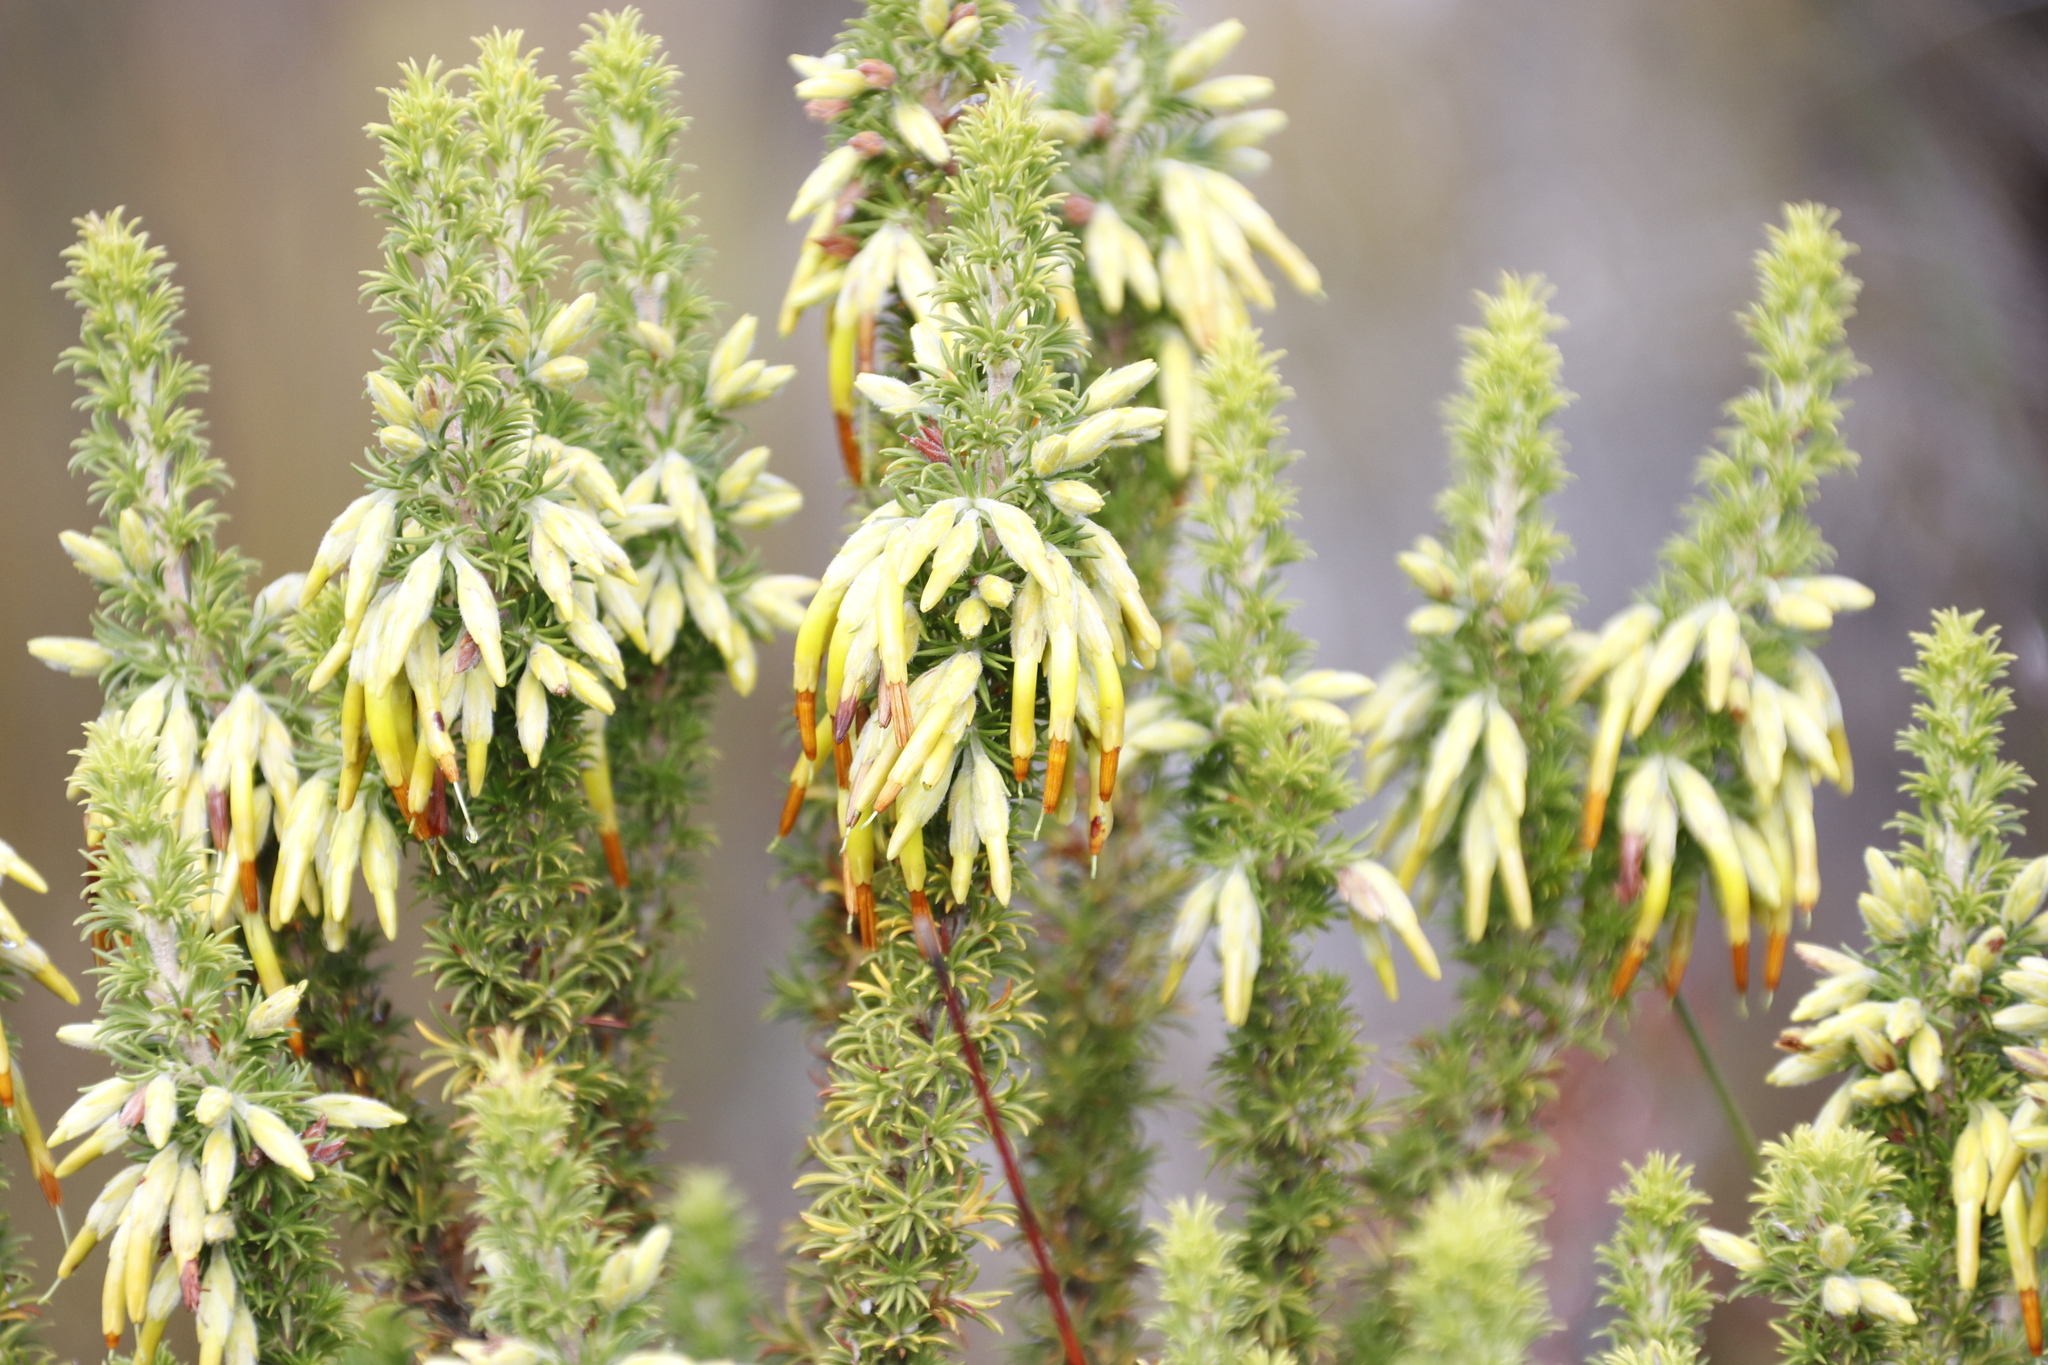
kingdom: Plantae
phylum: Tracheophyta
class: Magnoliopsida
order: Ericales
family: Ericaceae
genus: Erica
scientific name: Erica coccinea
